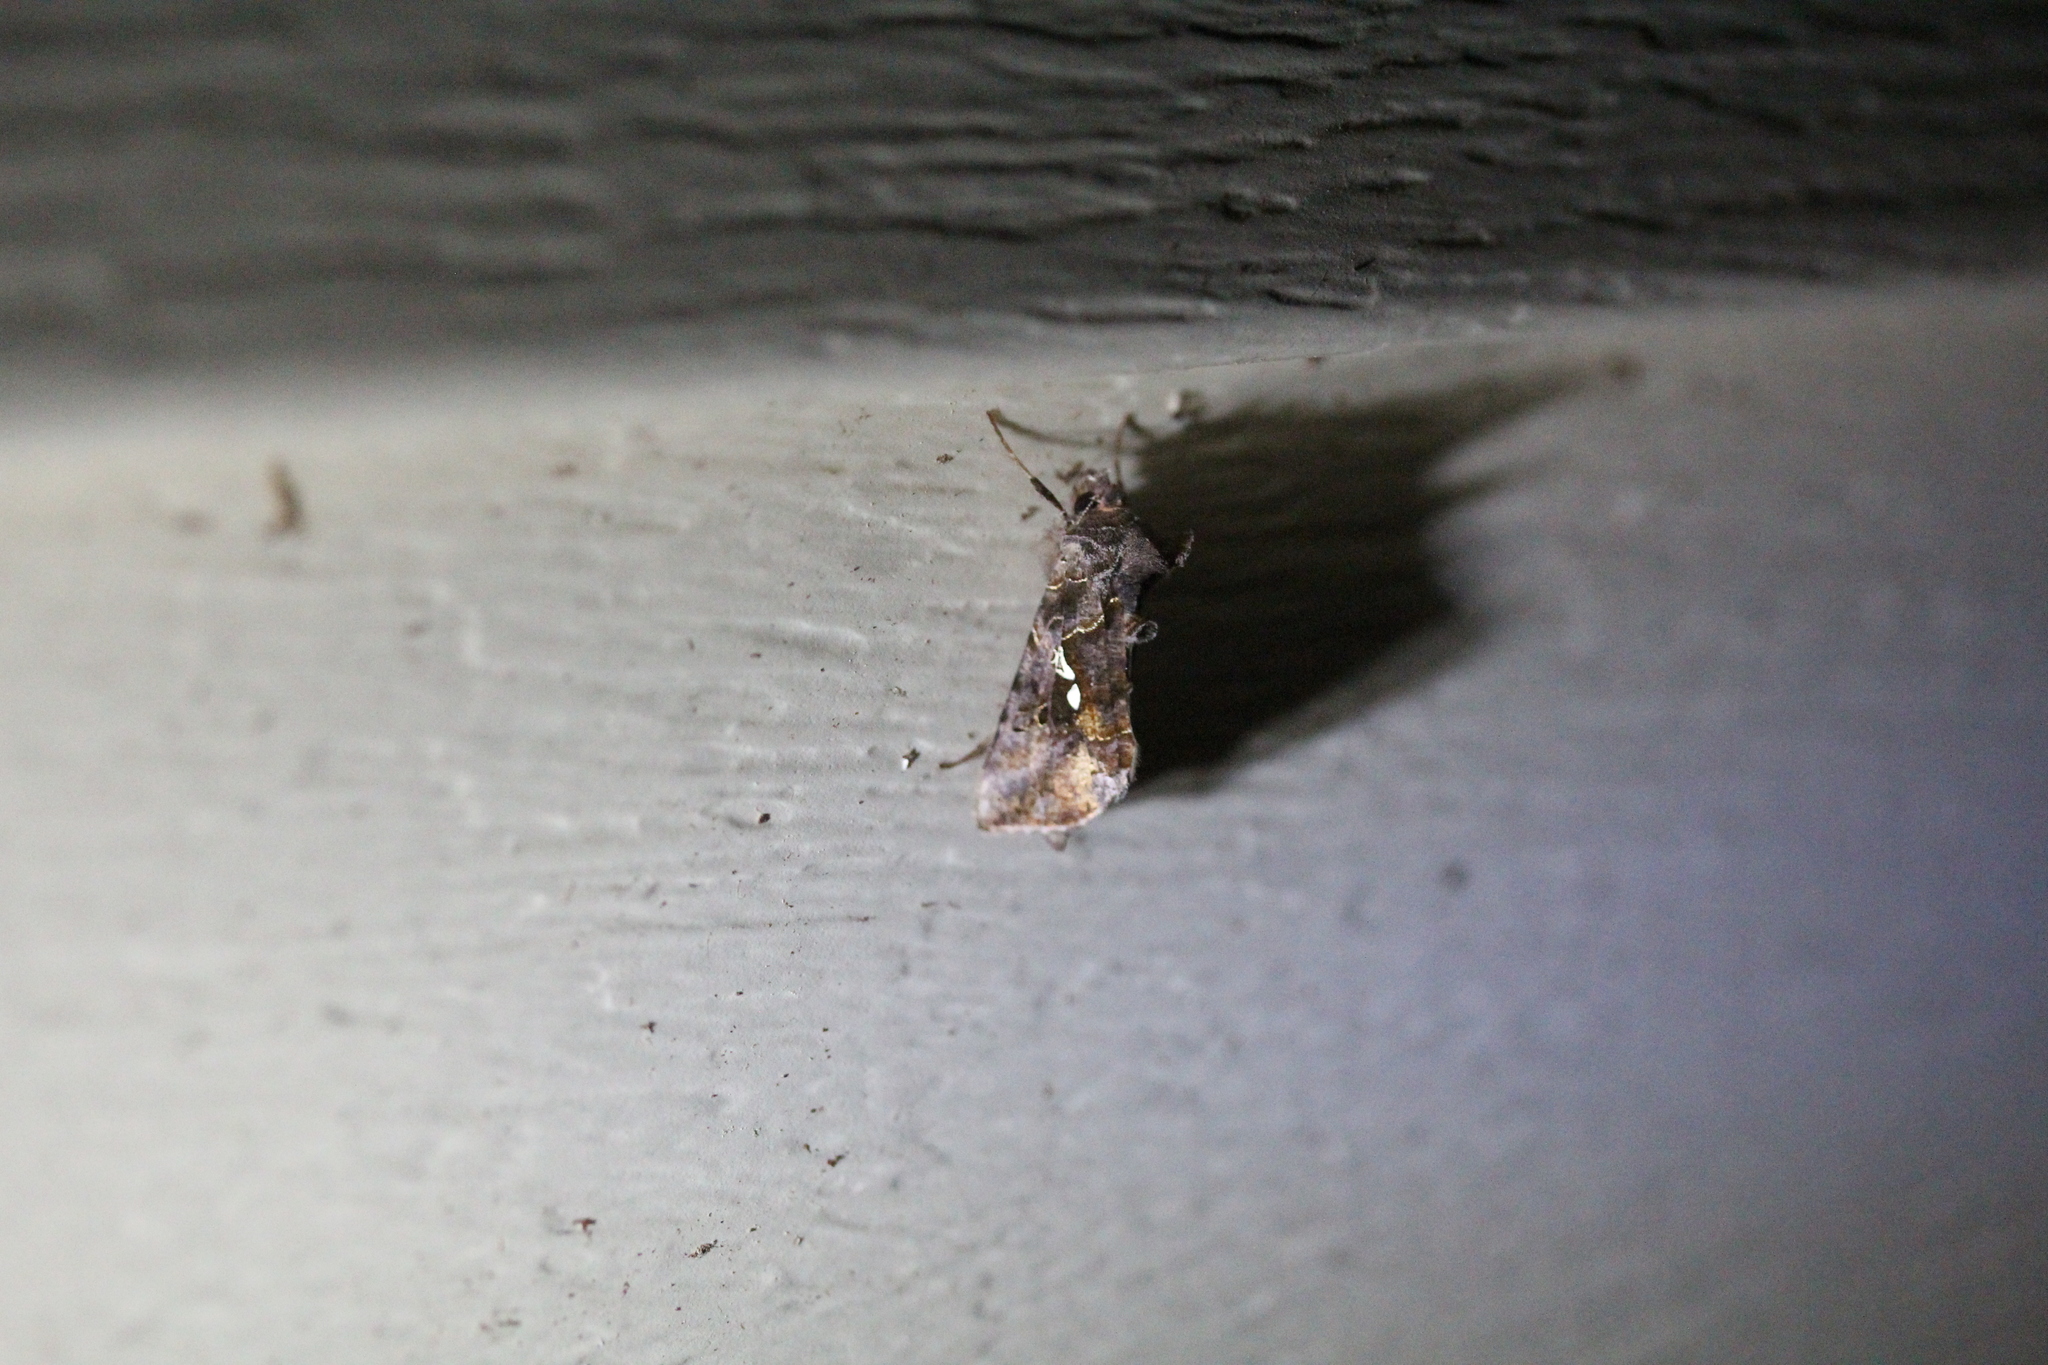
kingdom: Animalia
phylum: Arthropoda
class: Insecta
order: Lepidoptera
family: Noctuidae
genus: Autographa
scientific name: Autographa precationis
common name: Common looper moth
